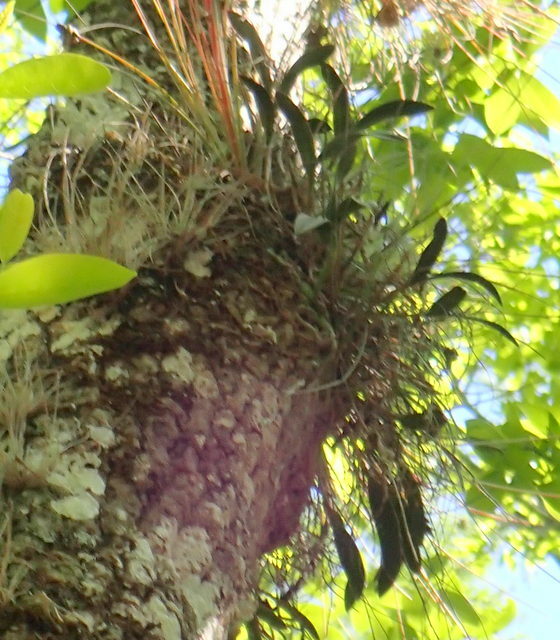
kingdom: Plantae
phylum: Tracheophyta
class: Liliopsida
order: Asparagales
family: Orchidaceae
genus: Epidendrum
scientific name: Epidendrum conopseum
